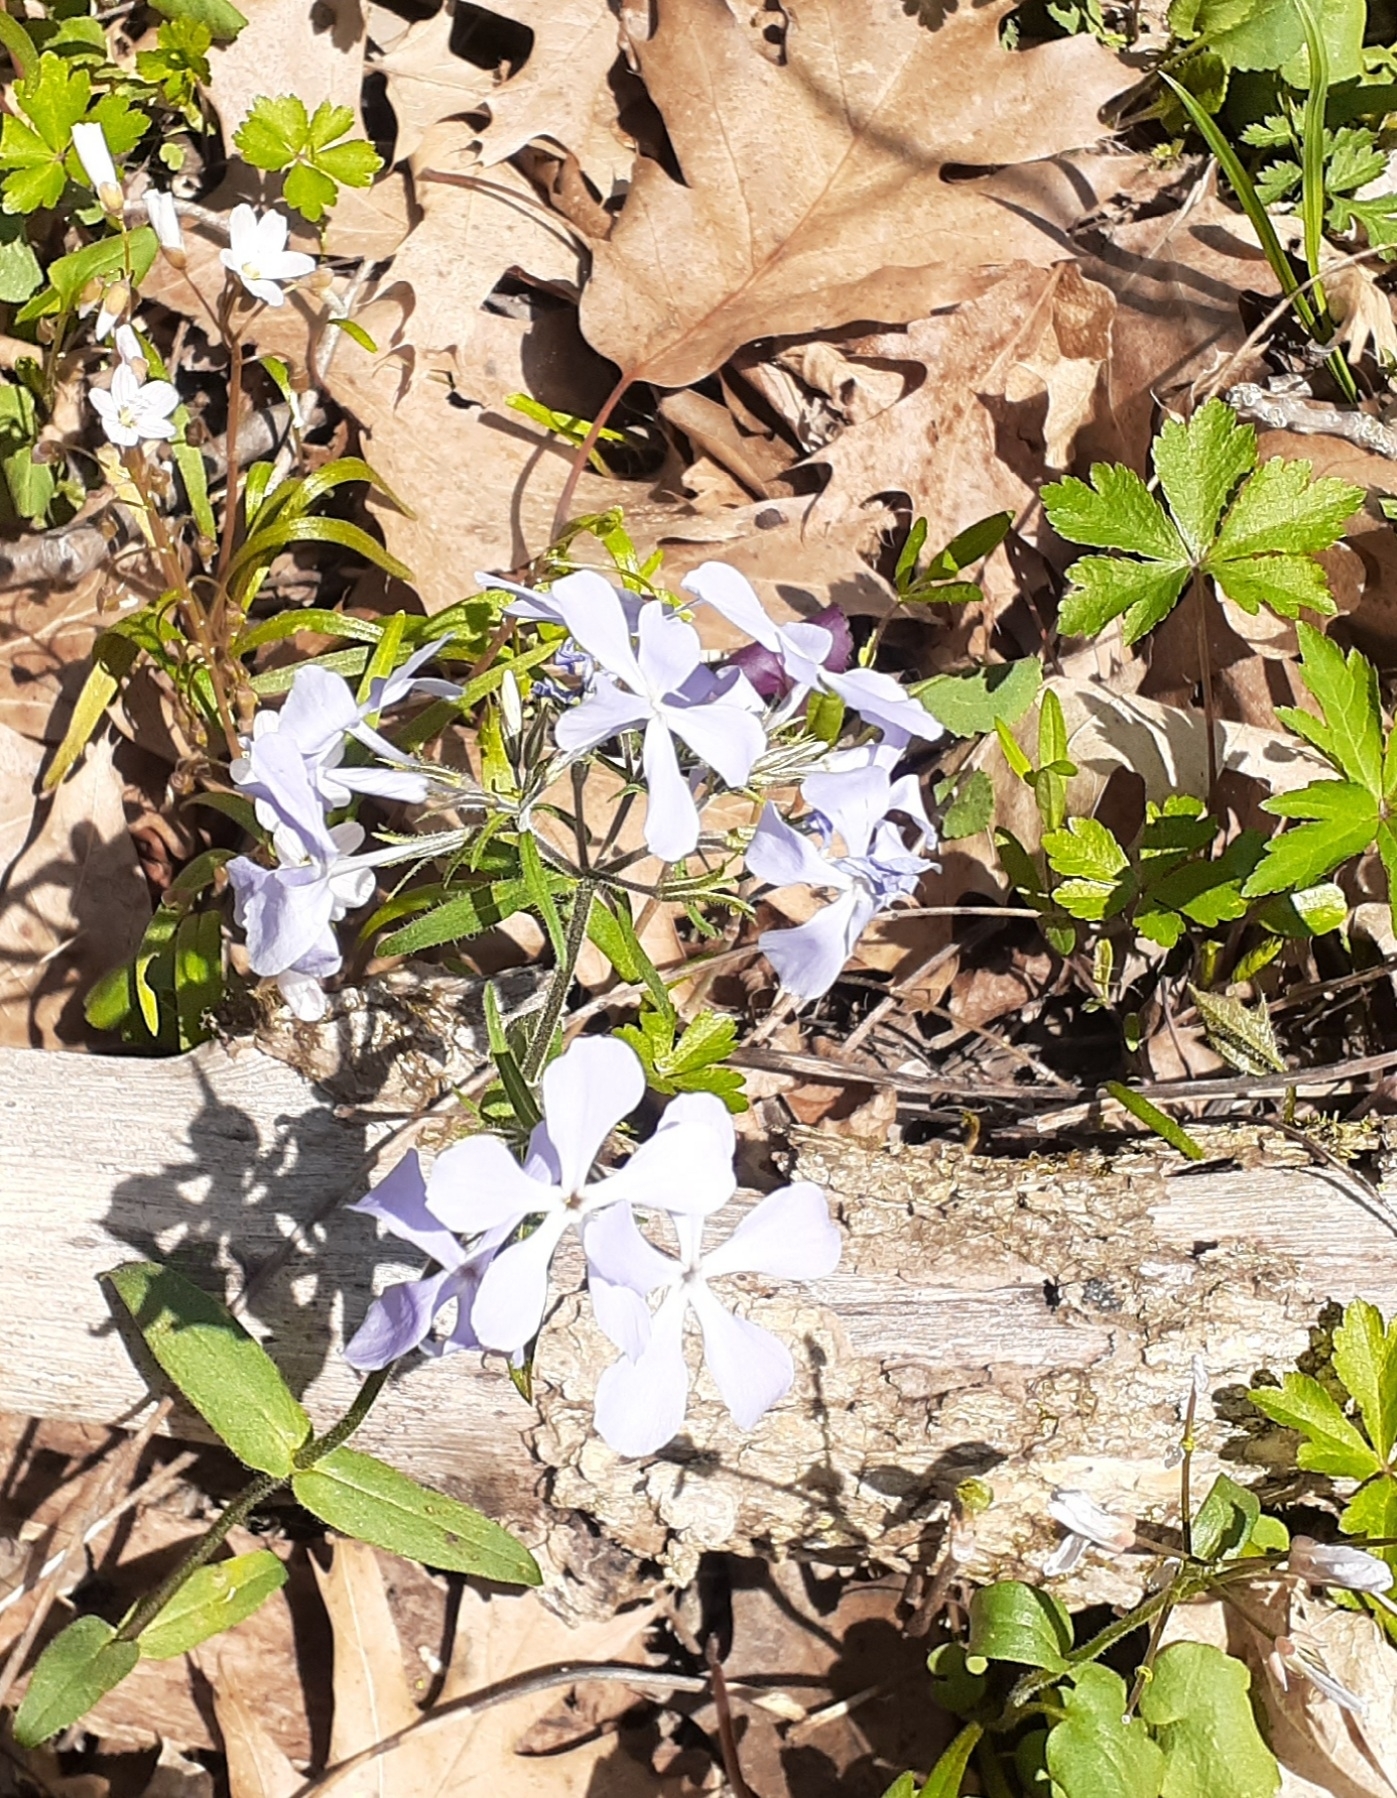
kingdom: Plantae
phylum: Tracheophyta
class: Magnoliopsida
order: Ericales
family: Polemoniaceae
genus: Phlox
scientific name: Phlox divaricata
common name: Blue phlox
